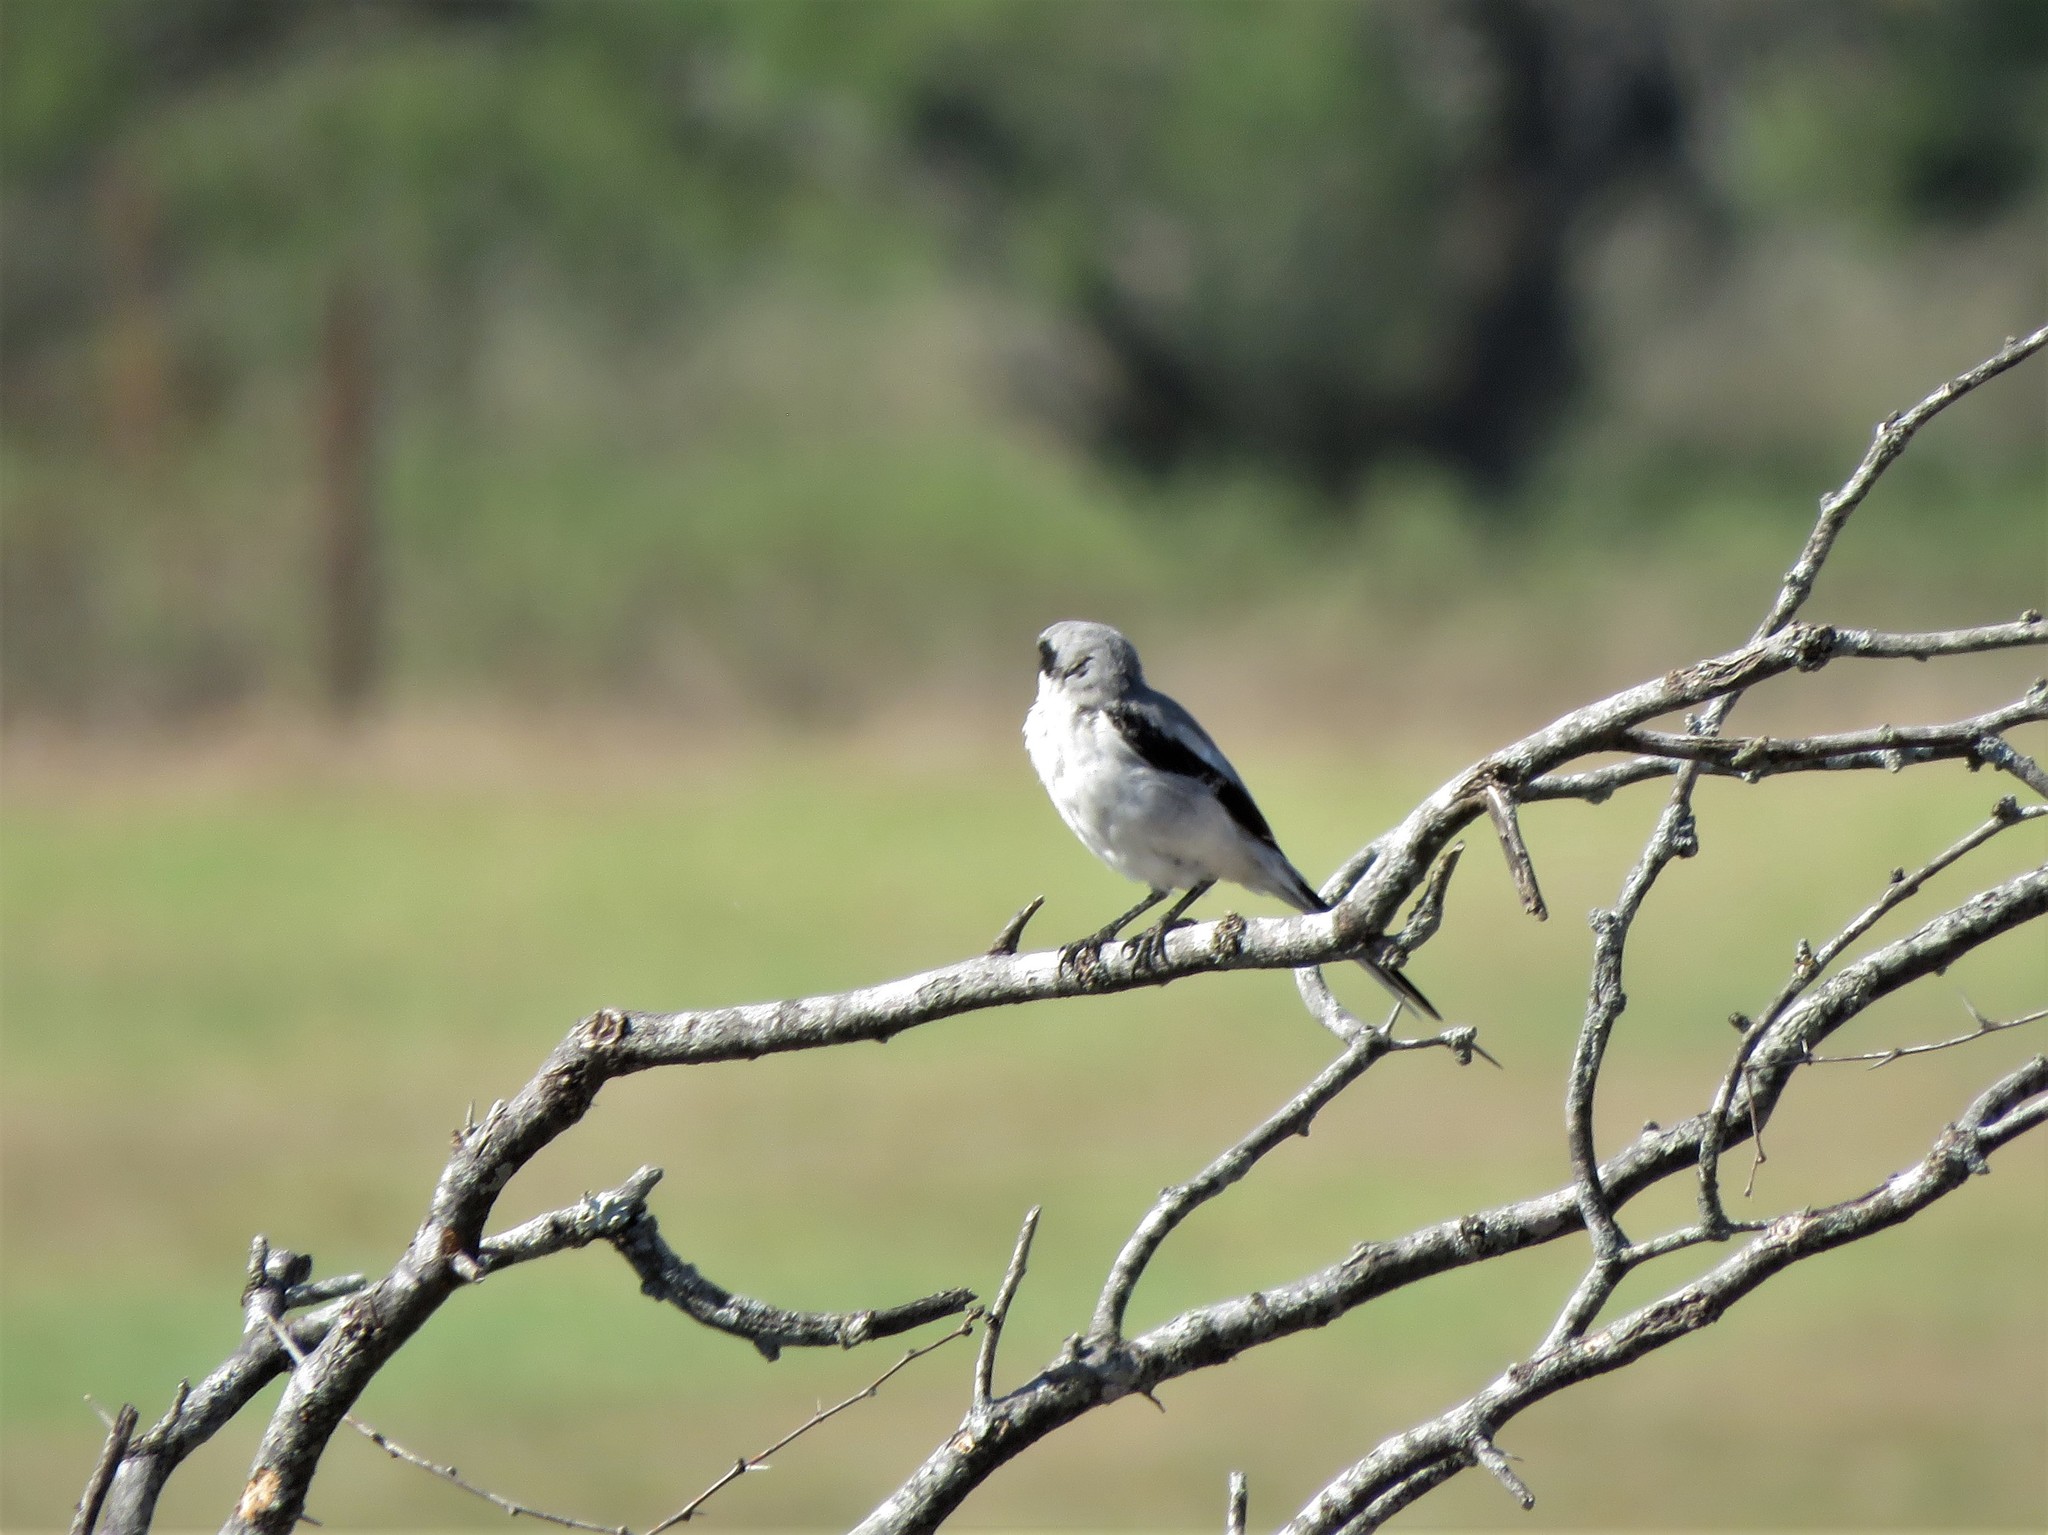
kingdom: Animalia
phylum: Chordata
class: Aves
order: Passeriformes
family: Laniidae
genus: Lanius
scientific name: Lanius ludovicianus
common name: Loggerhead shrike
